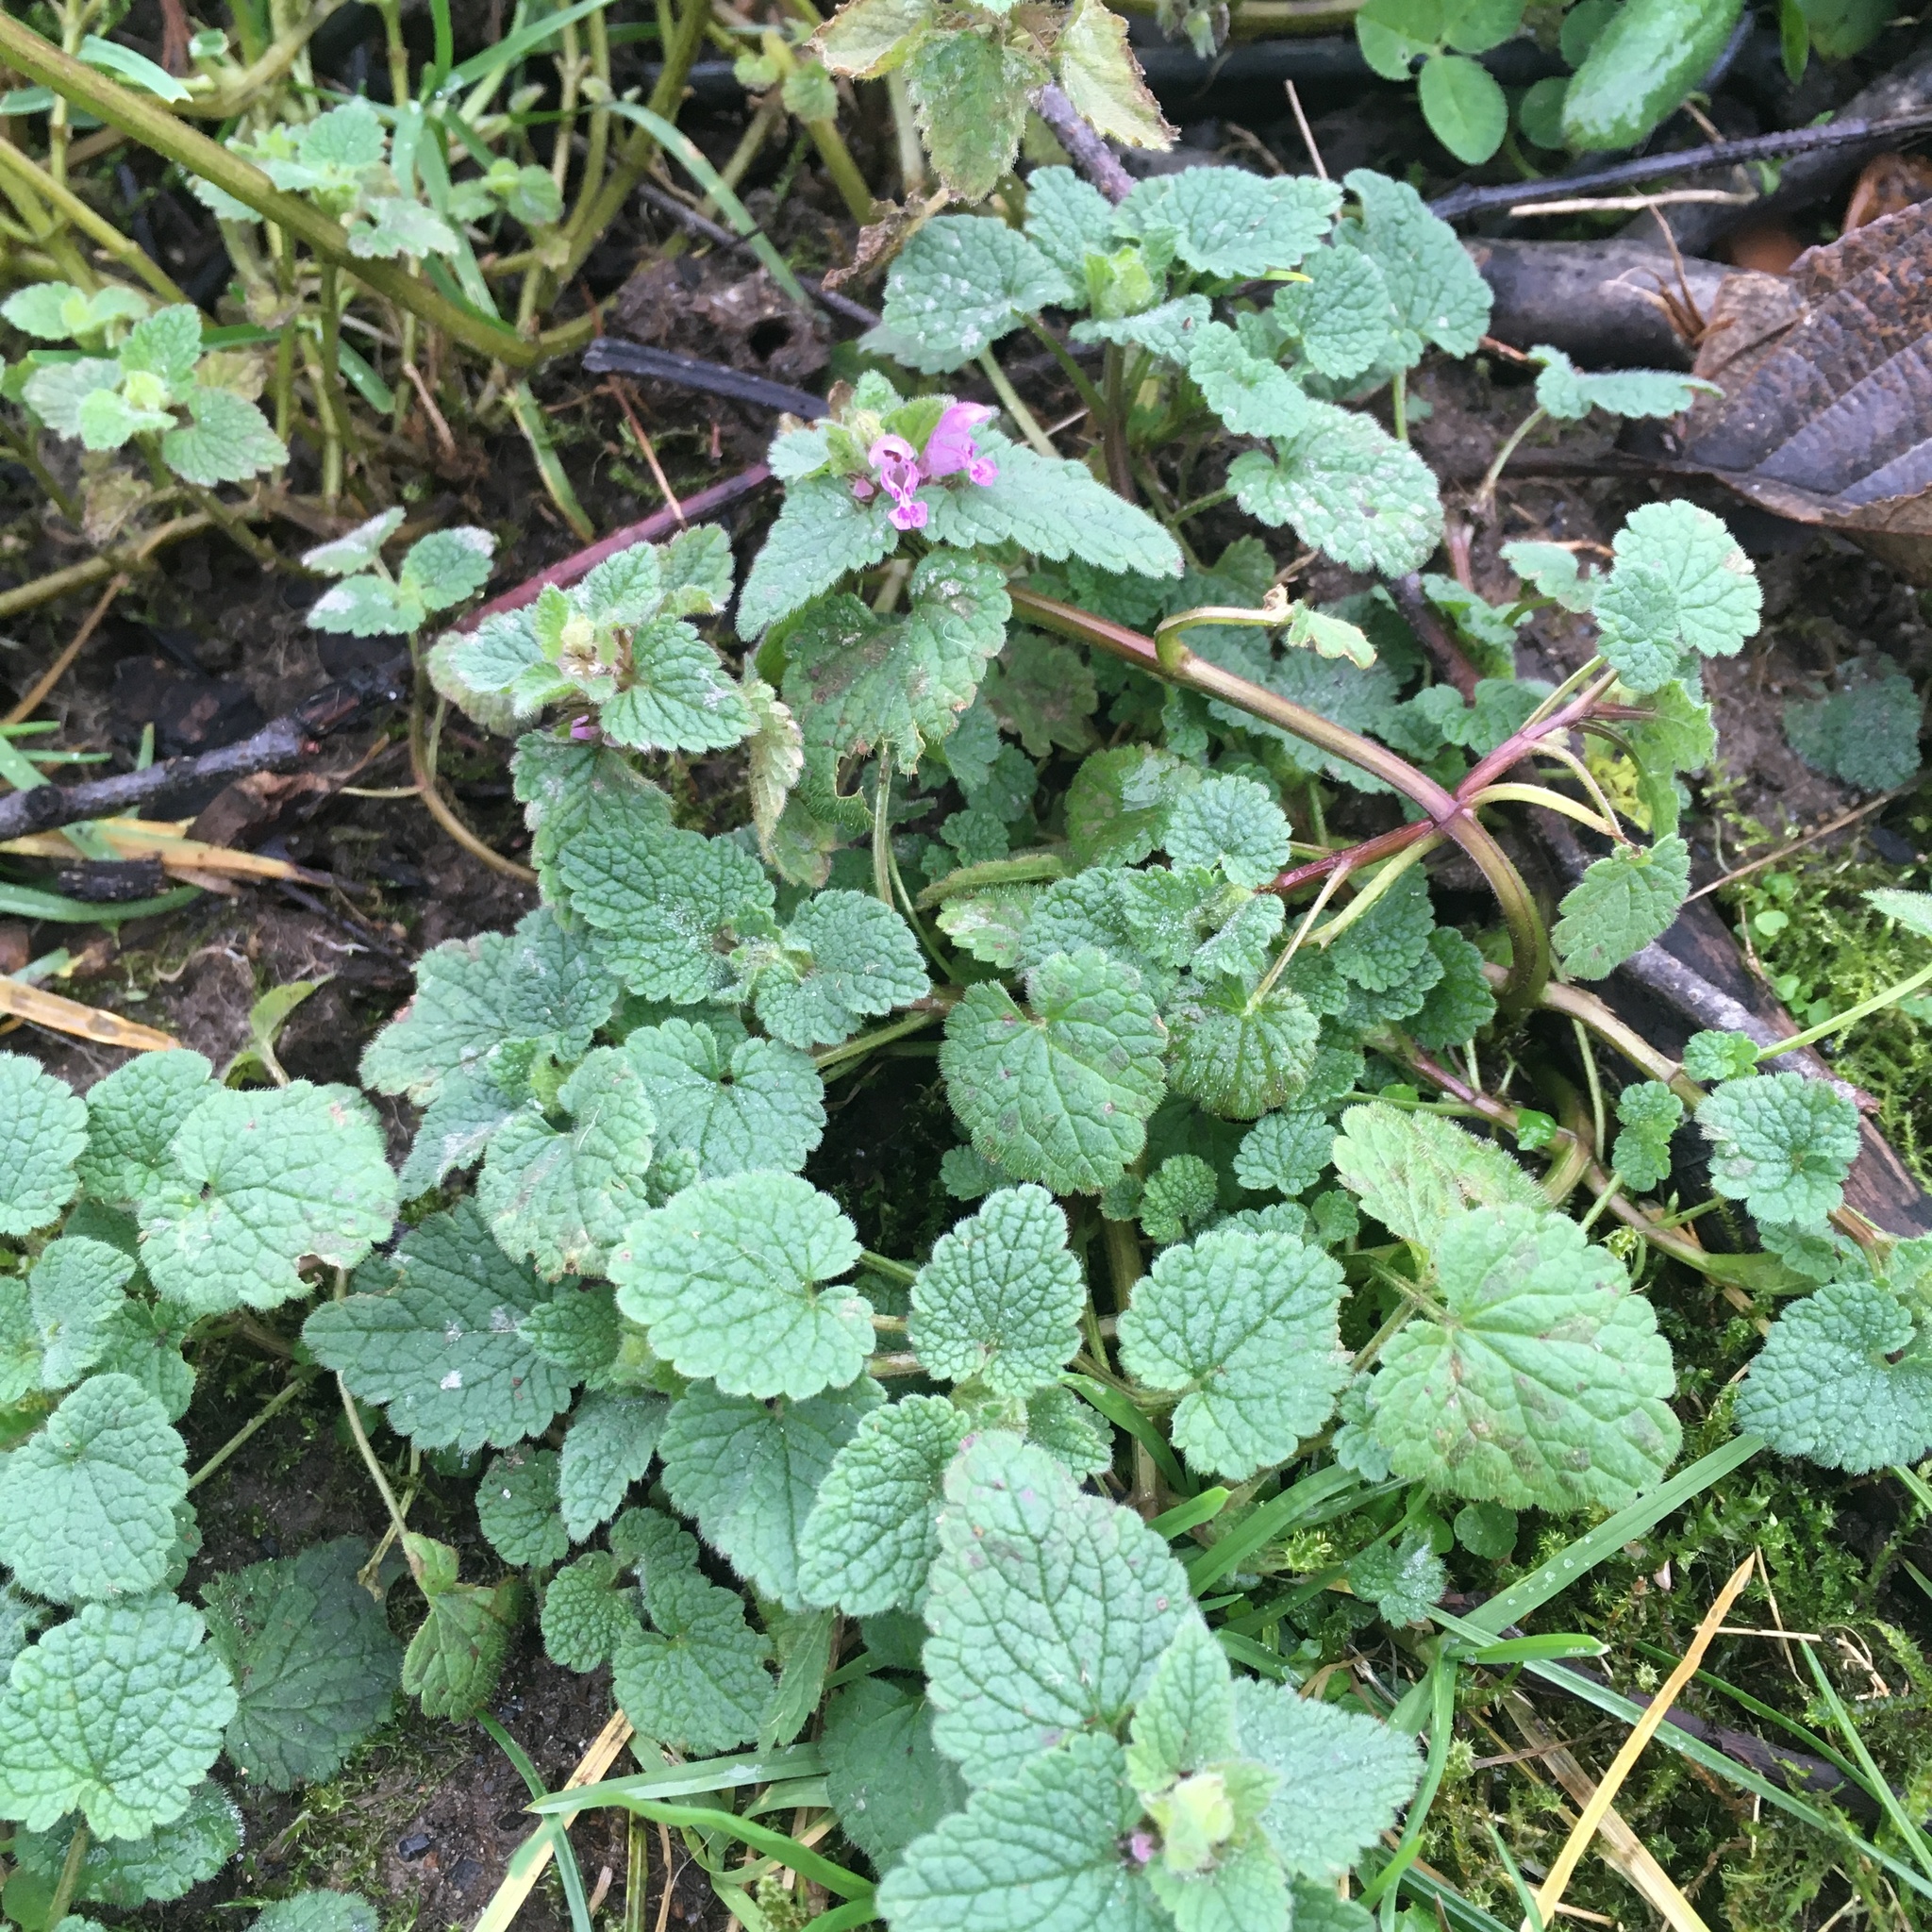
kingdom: Plantae
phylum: Tracheophyta
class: Magnoliopsida
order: Lamiales
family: Lamiaceae
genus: Lamium
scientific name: Lamium purpureum
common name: Red dead-nettle
